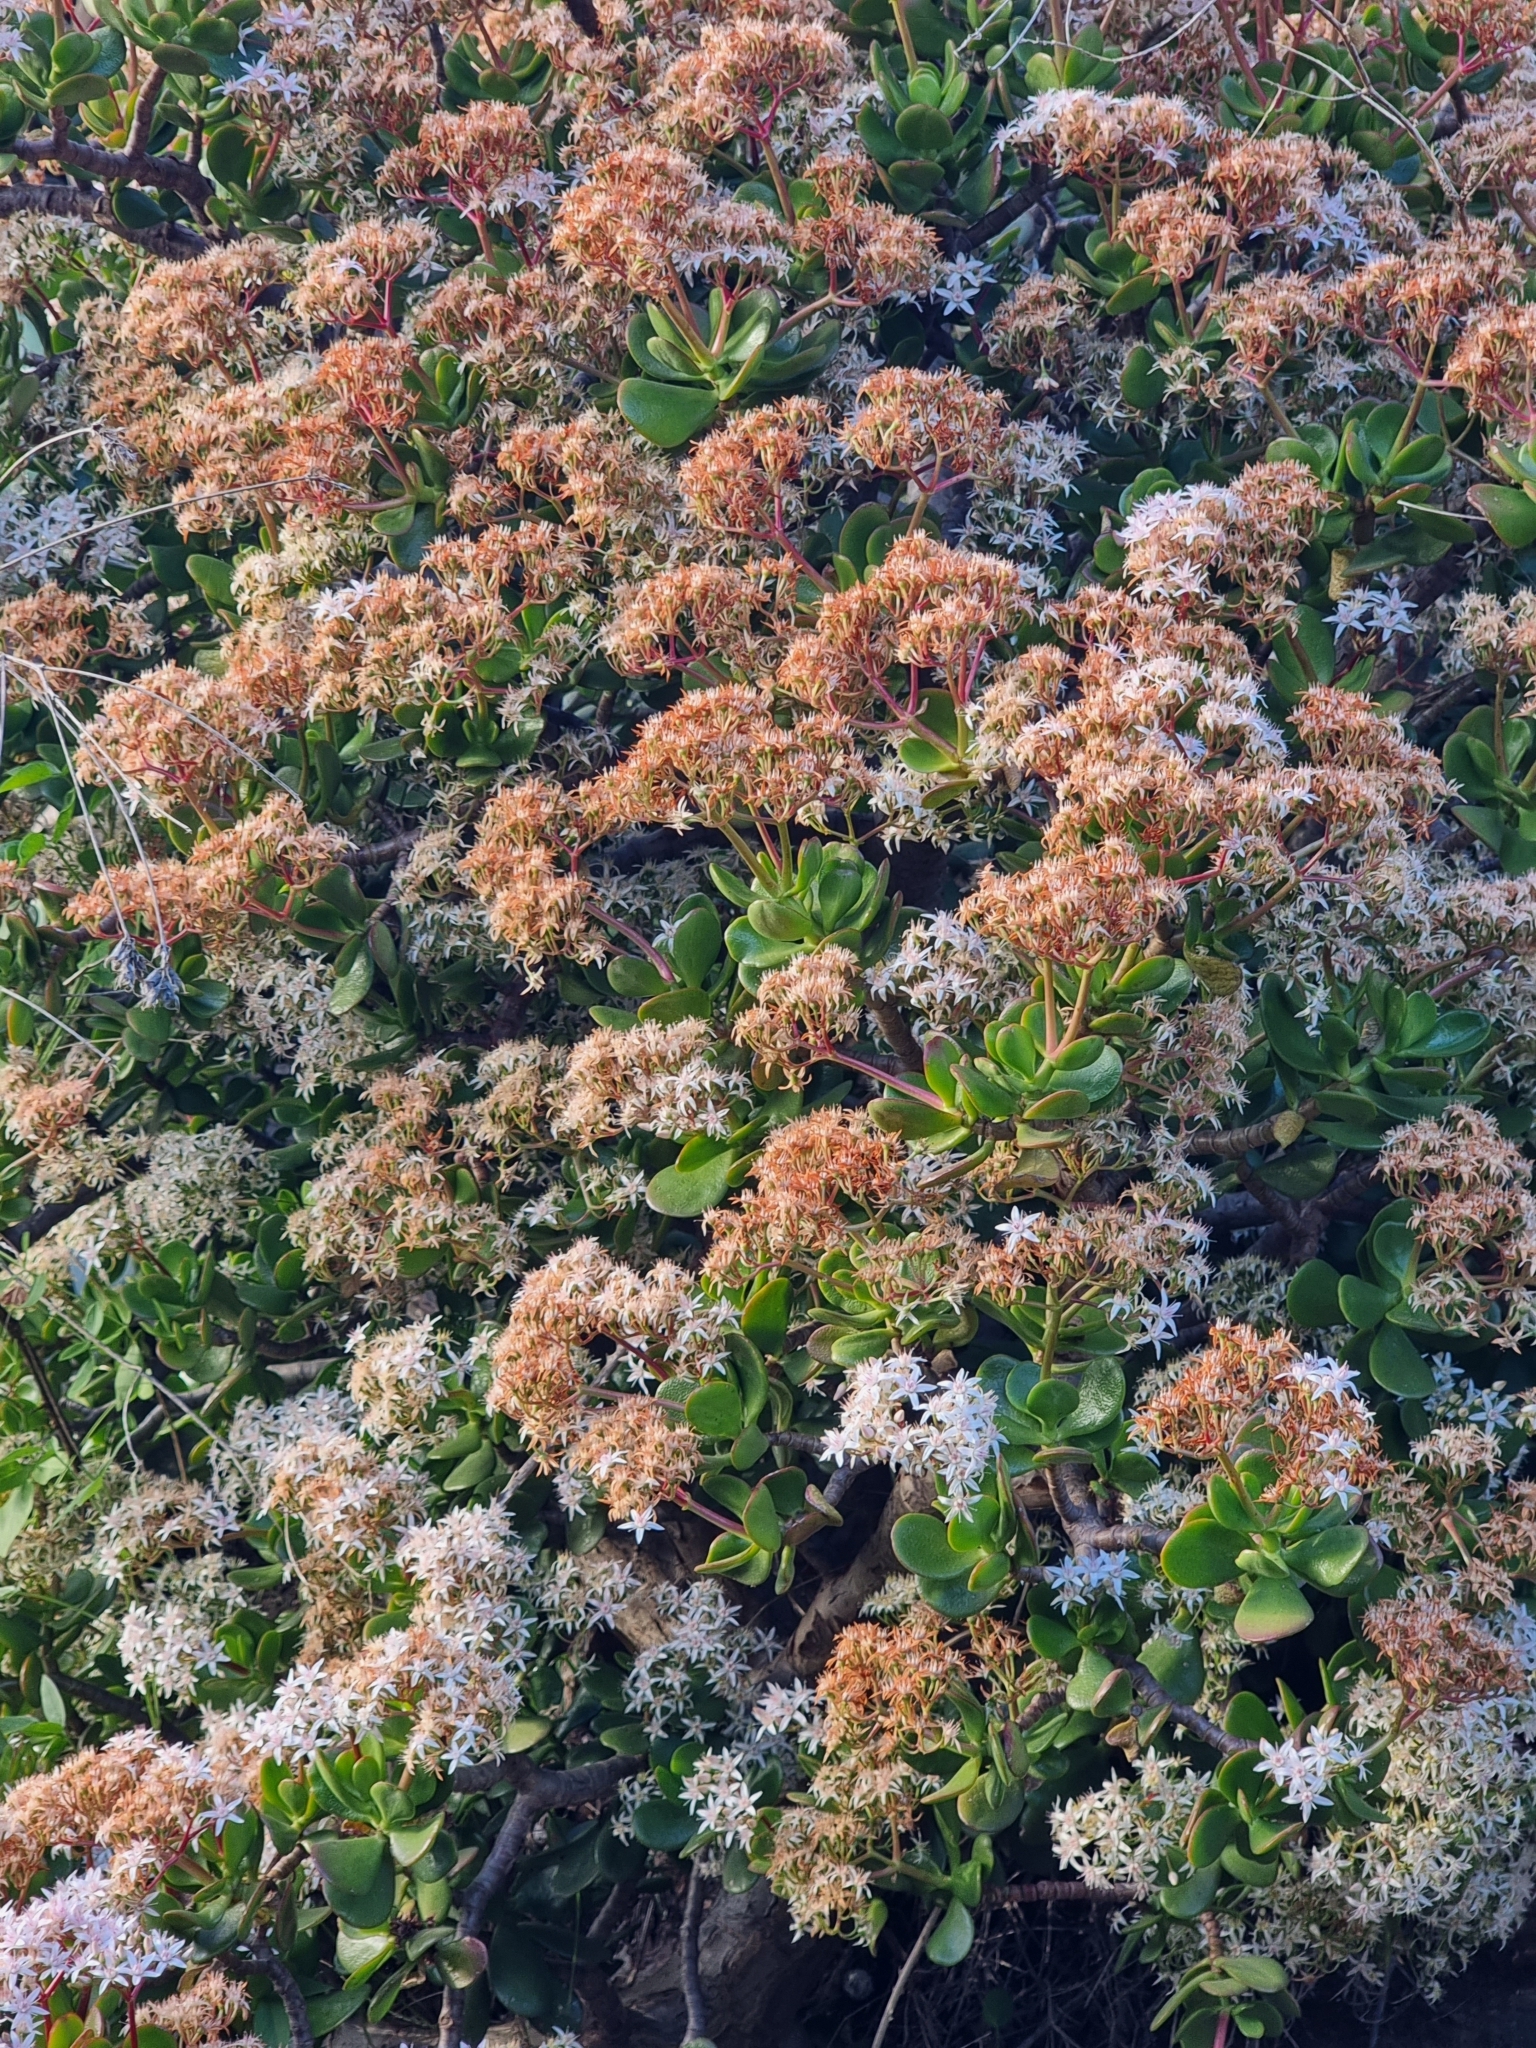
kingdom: Plantae
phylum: Tracheophyta
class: Magnoliopsida
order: Saxifragales
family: Crassulaceae
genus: Crassula
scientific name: Crassula ovata
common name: Jade plant
